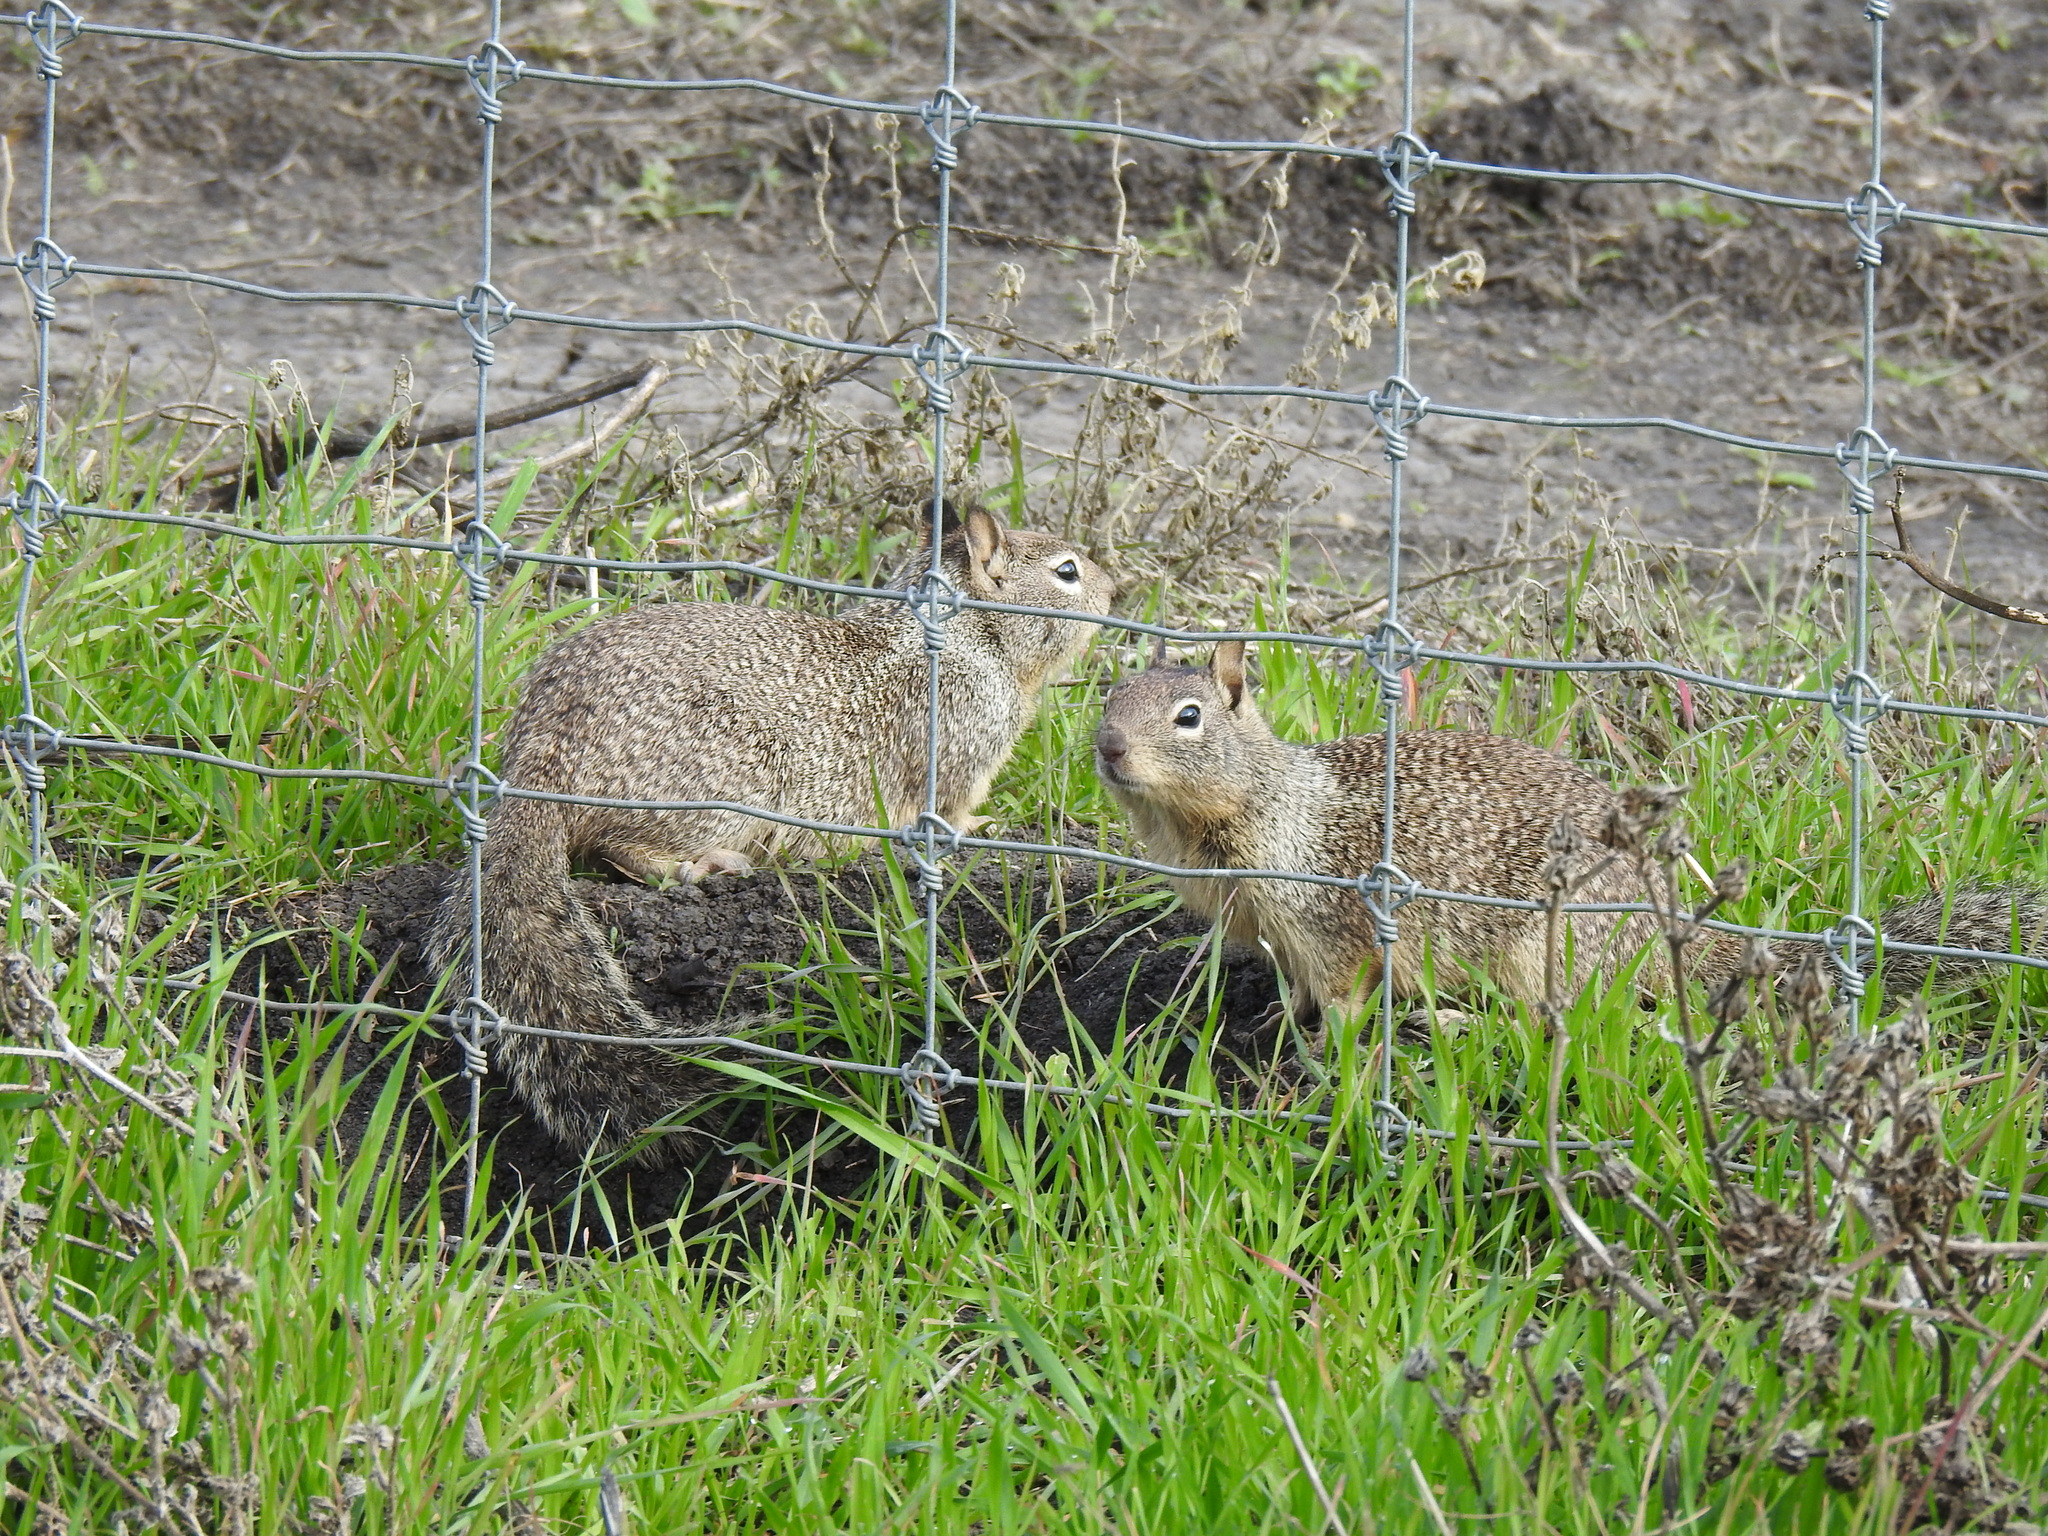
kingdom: Animalia
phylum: Chordata
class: Mammalia
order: Rodentia
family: Sciuridae
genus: Otospermophilus
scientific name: Otospermophilus beecheyi
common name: California ground squirrel
